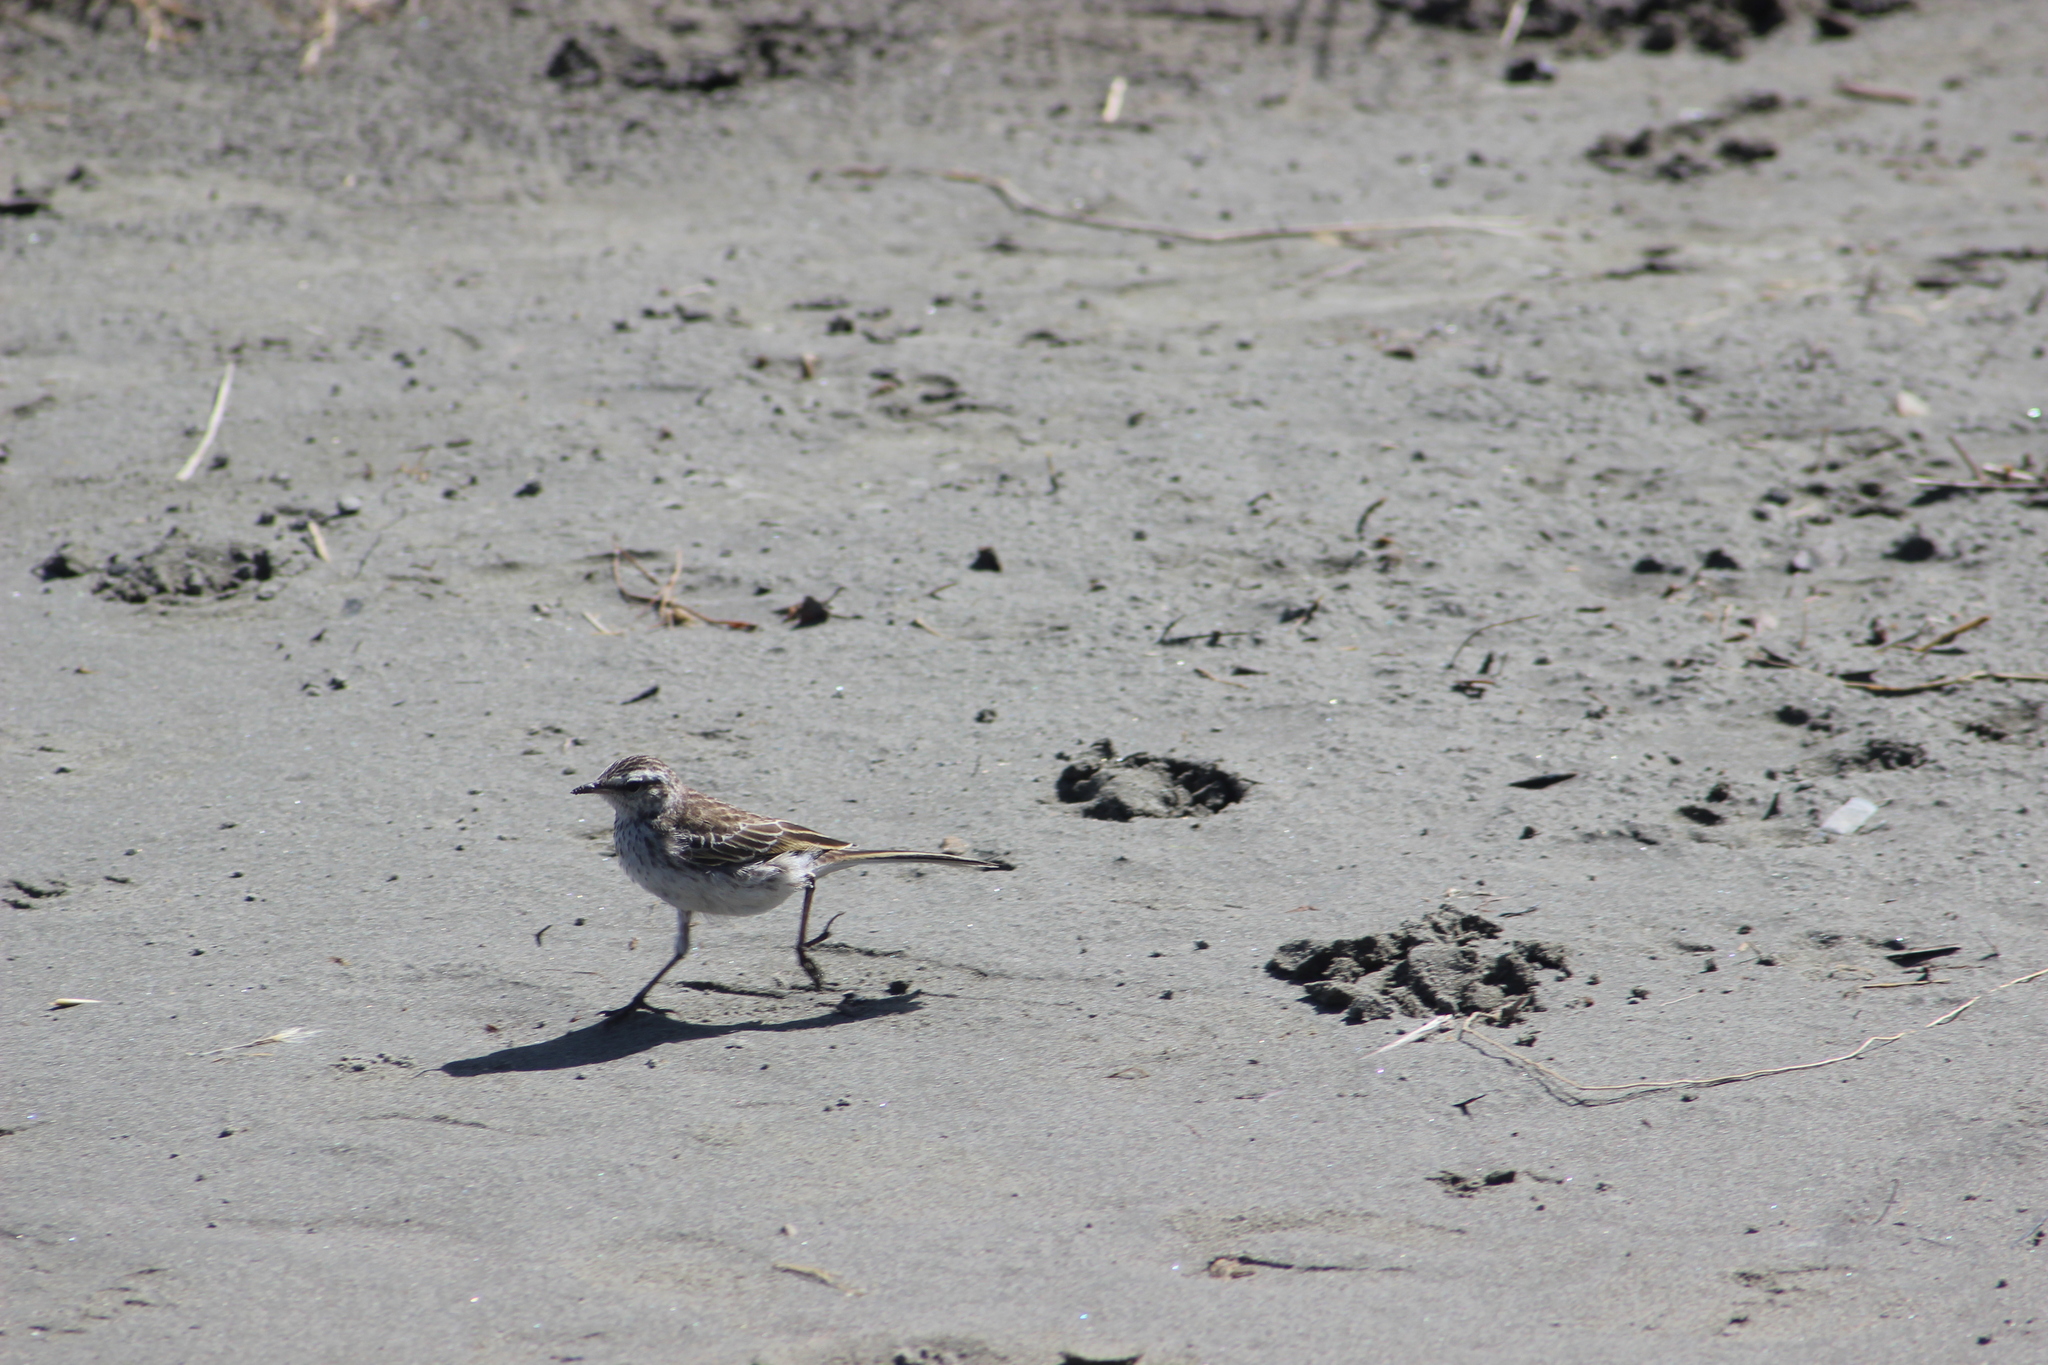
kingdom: Animalia
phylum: Chordata
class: Aves
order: Passeriformes
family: Motacillidae
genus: Anthus
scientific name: Anthus novaeseelandiae
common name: New zealand pipit
